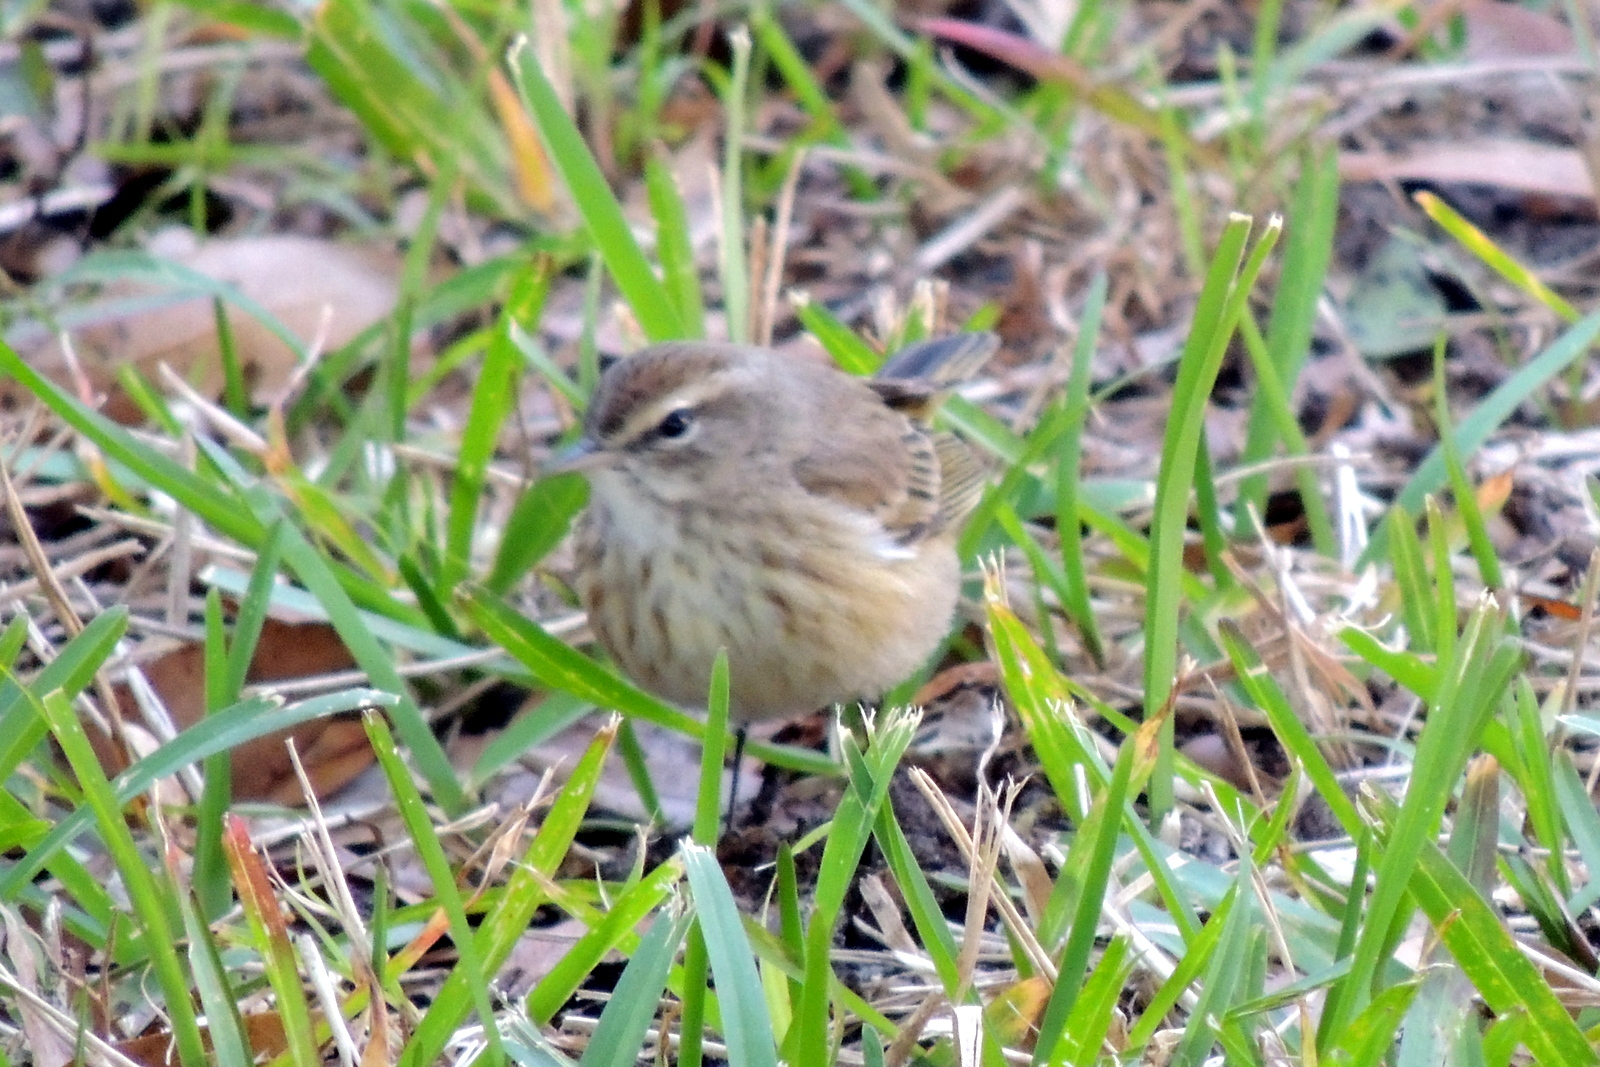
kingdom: Animalia
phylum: Chordata
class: Aves
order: Passeriformes
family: Parulidae
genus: Setophaga
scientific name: Setophaga palmarum
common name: Palm warbler
